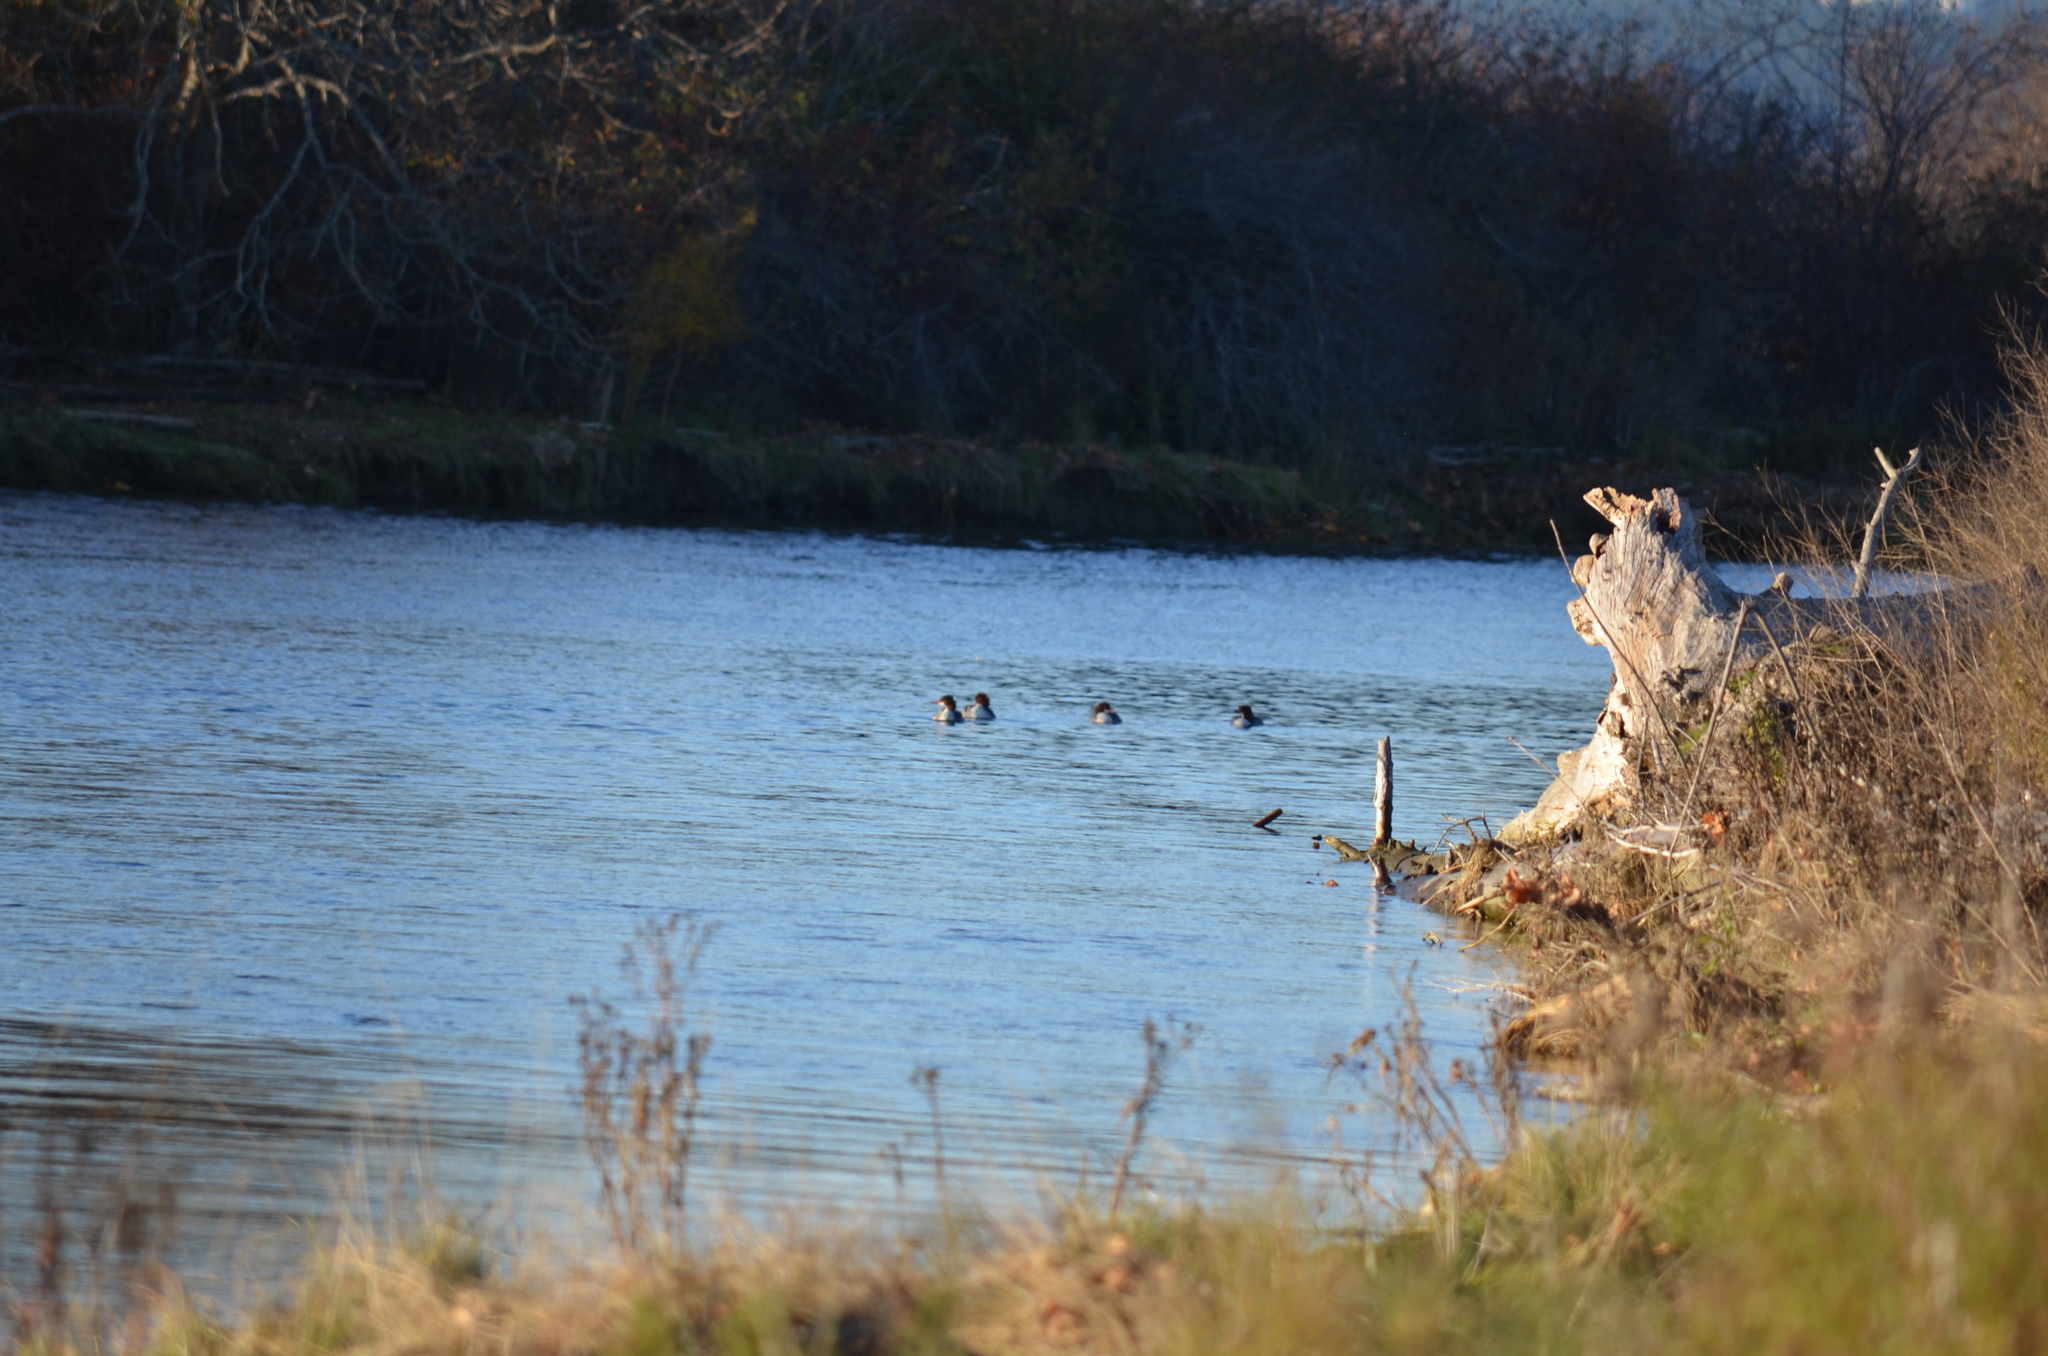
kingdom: Animalia
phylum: Chordata
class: Aves
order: Anseriformes
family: Anatidae
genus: Mergus
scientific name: Mergus merganser
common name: Common merganser
